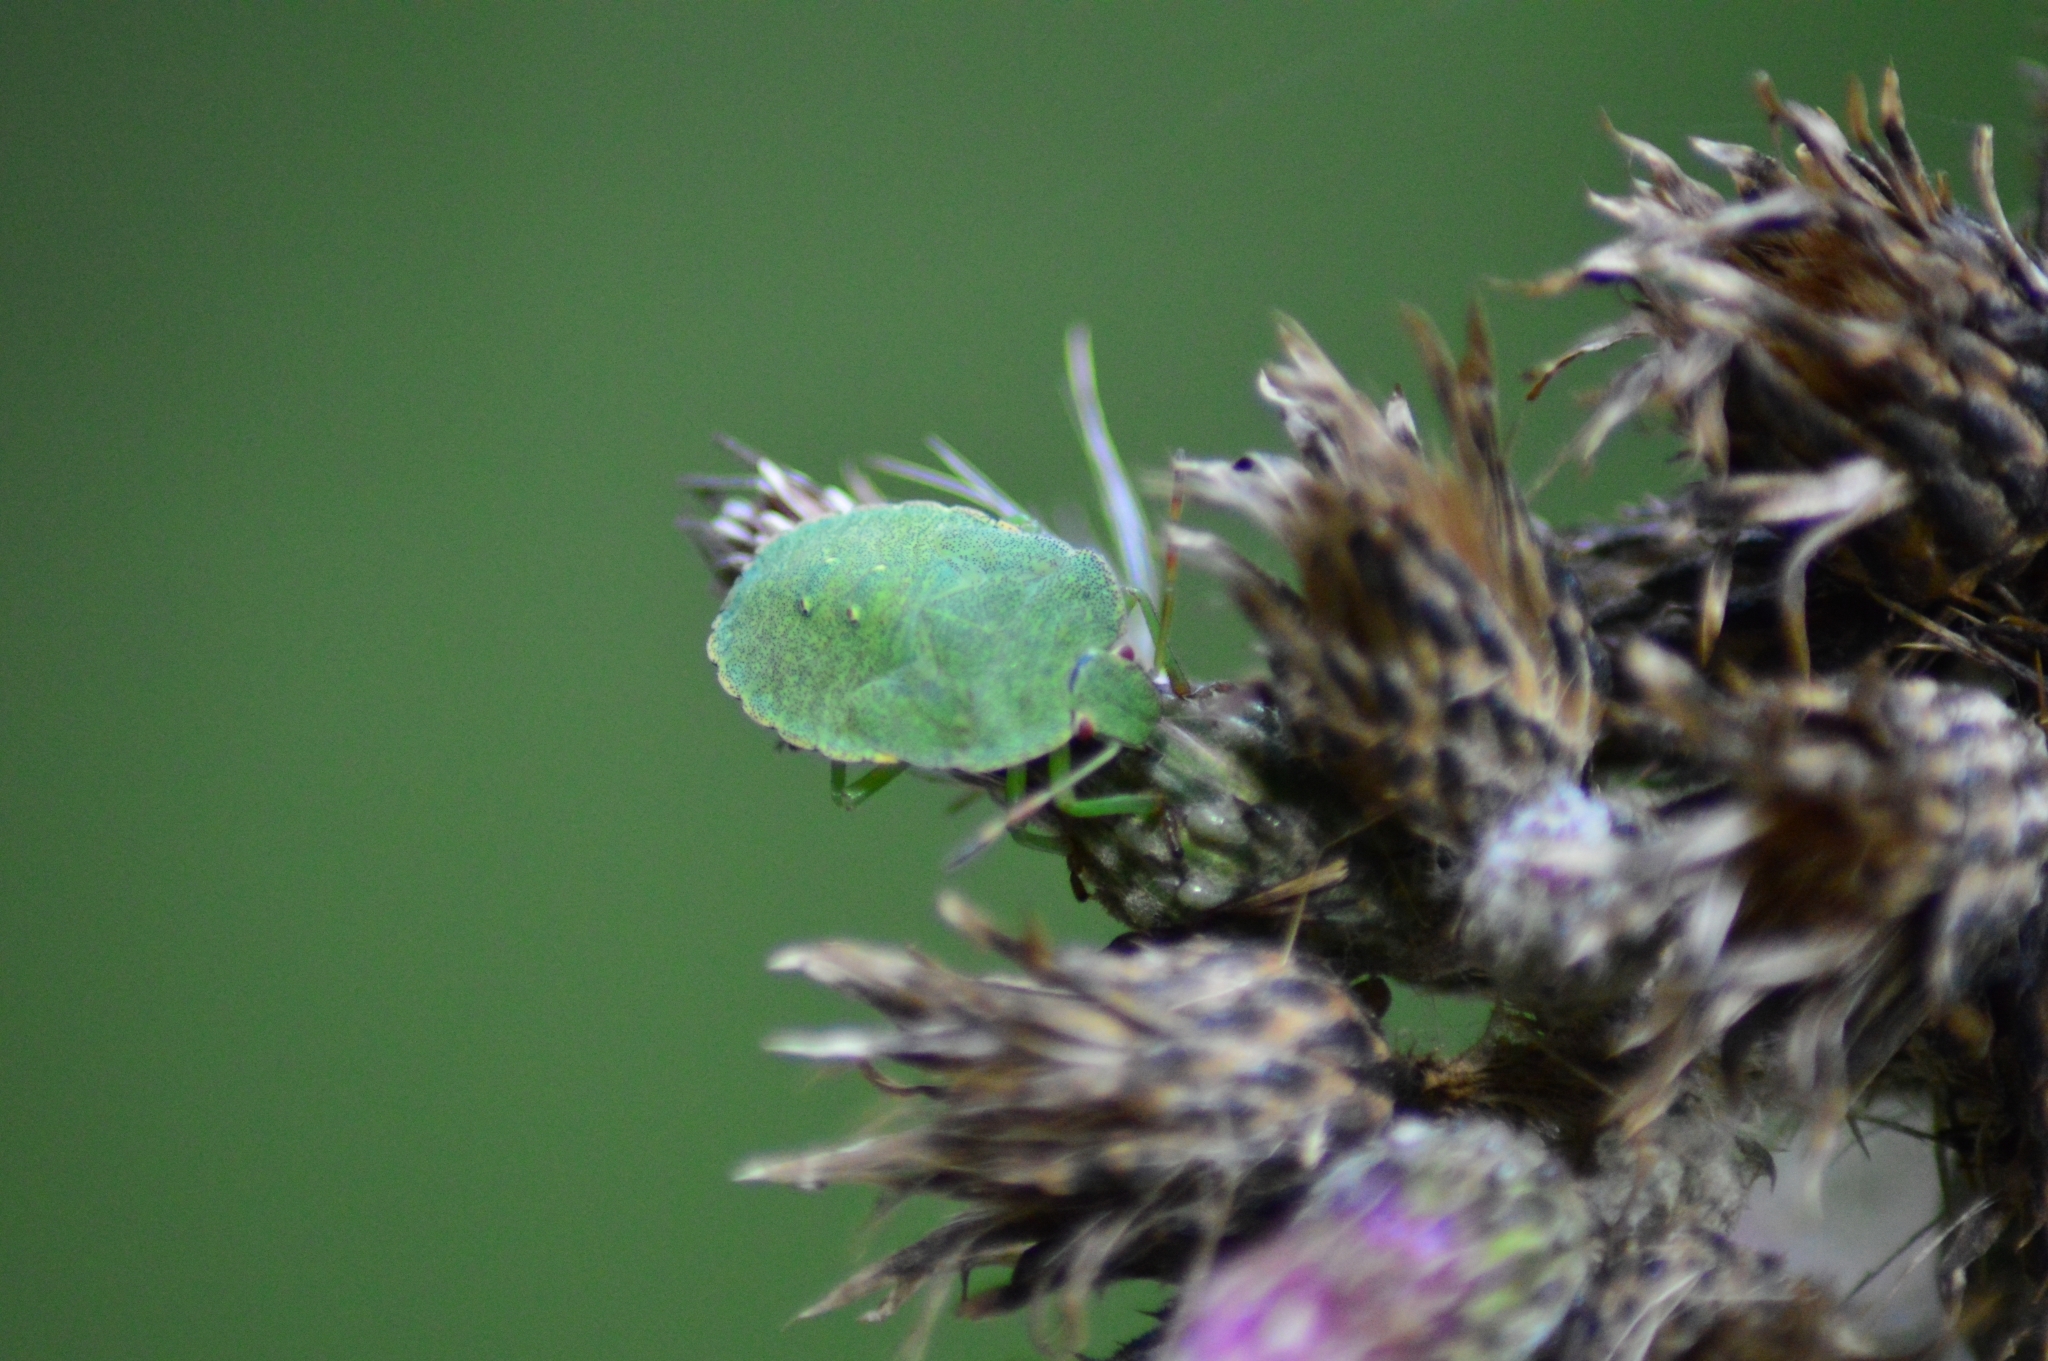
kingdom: Animalia
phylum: Arthropoda
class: Insecta
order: Hemiptera
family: Pentatomidae
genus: Palomena
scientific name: Palomena prasina
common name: Green shieldbug
